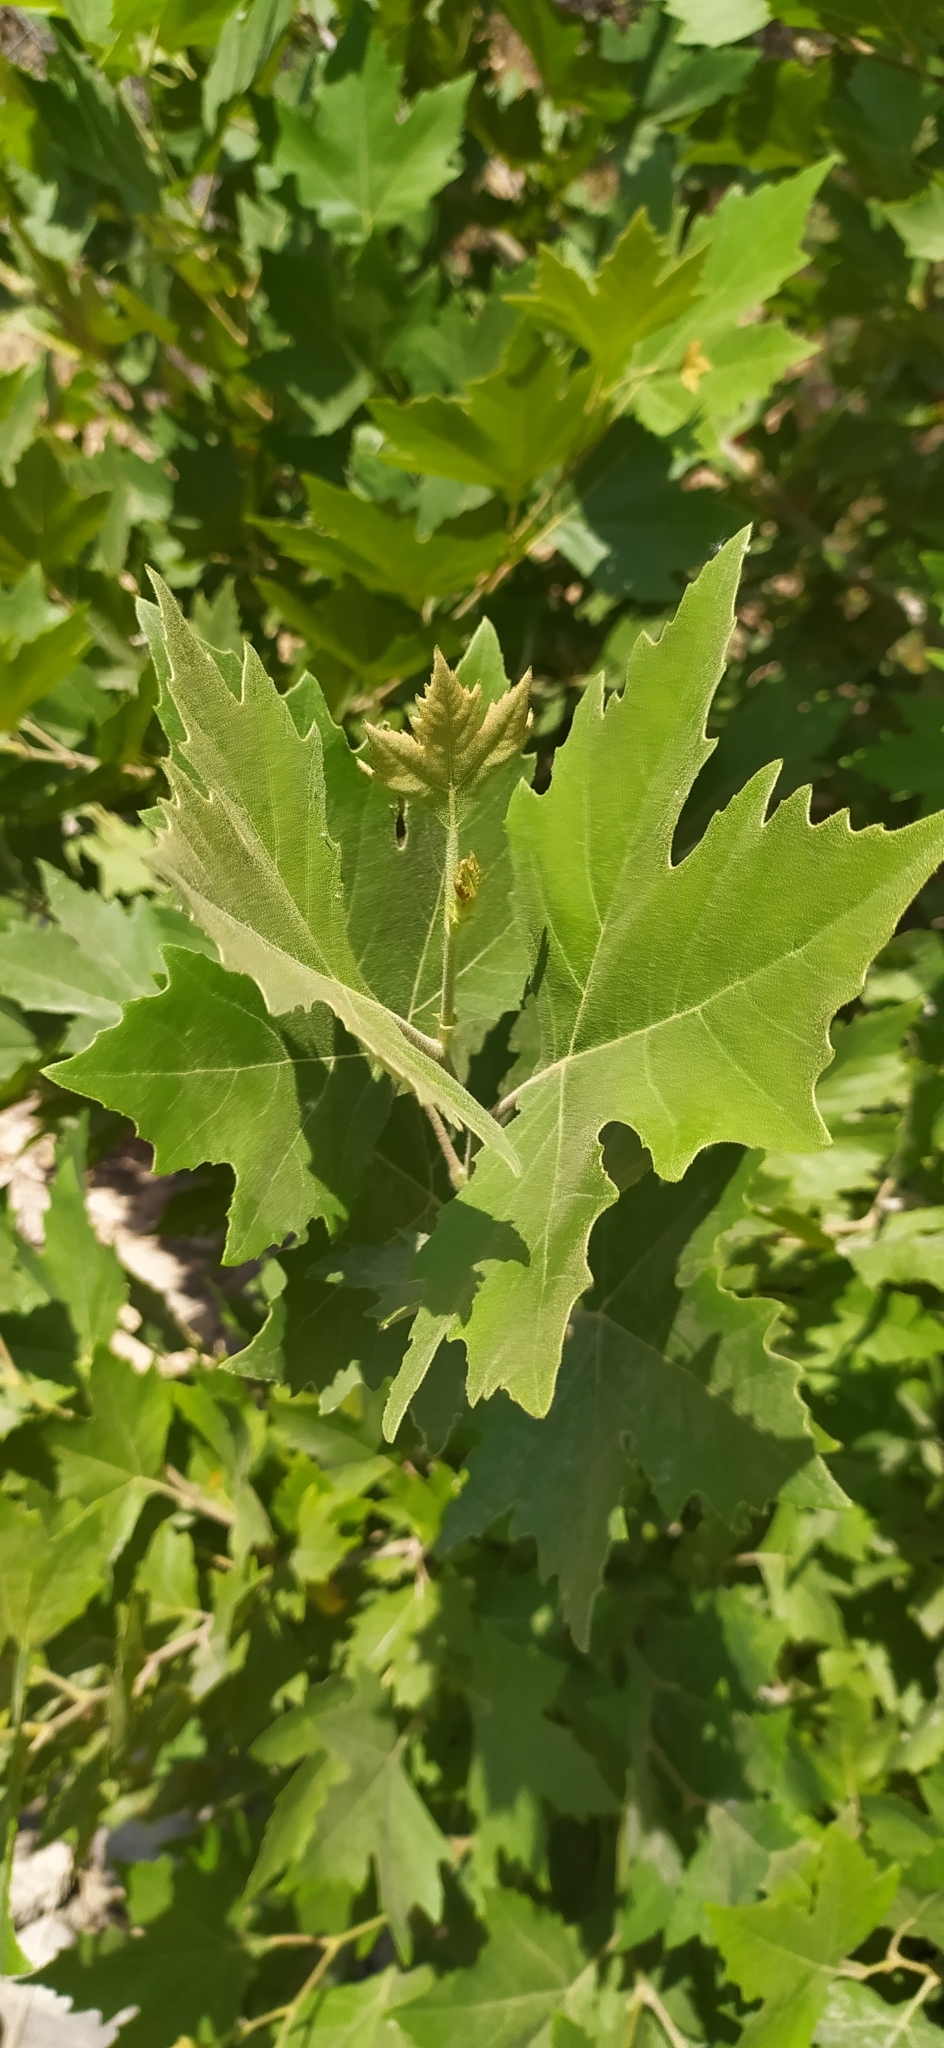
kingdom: Plantae
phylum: Tracheophyta
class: Magnoliopsida
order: Proteales
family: Platanaceae
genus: Platanus
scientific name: Platanus orientalis
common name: Oriental plane
